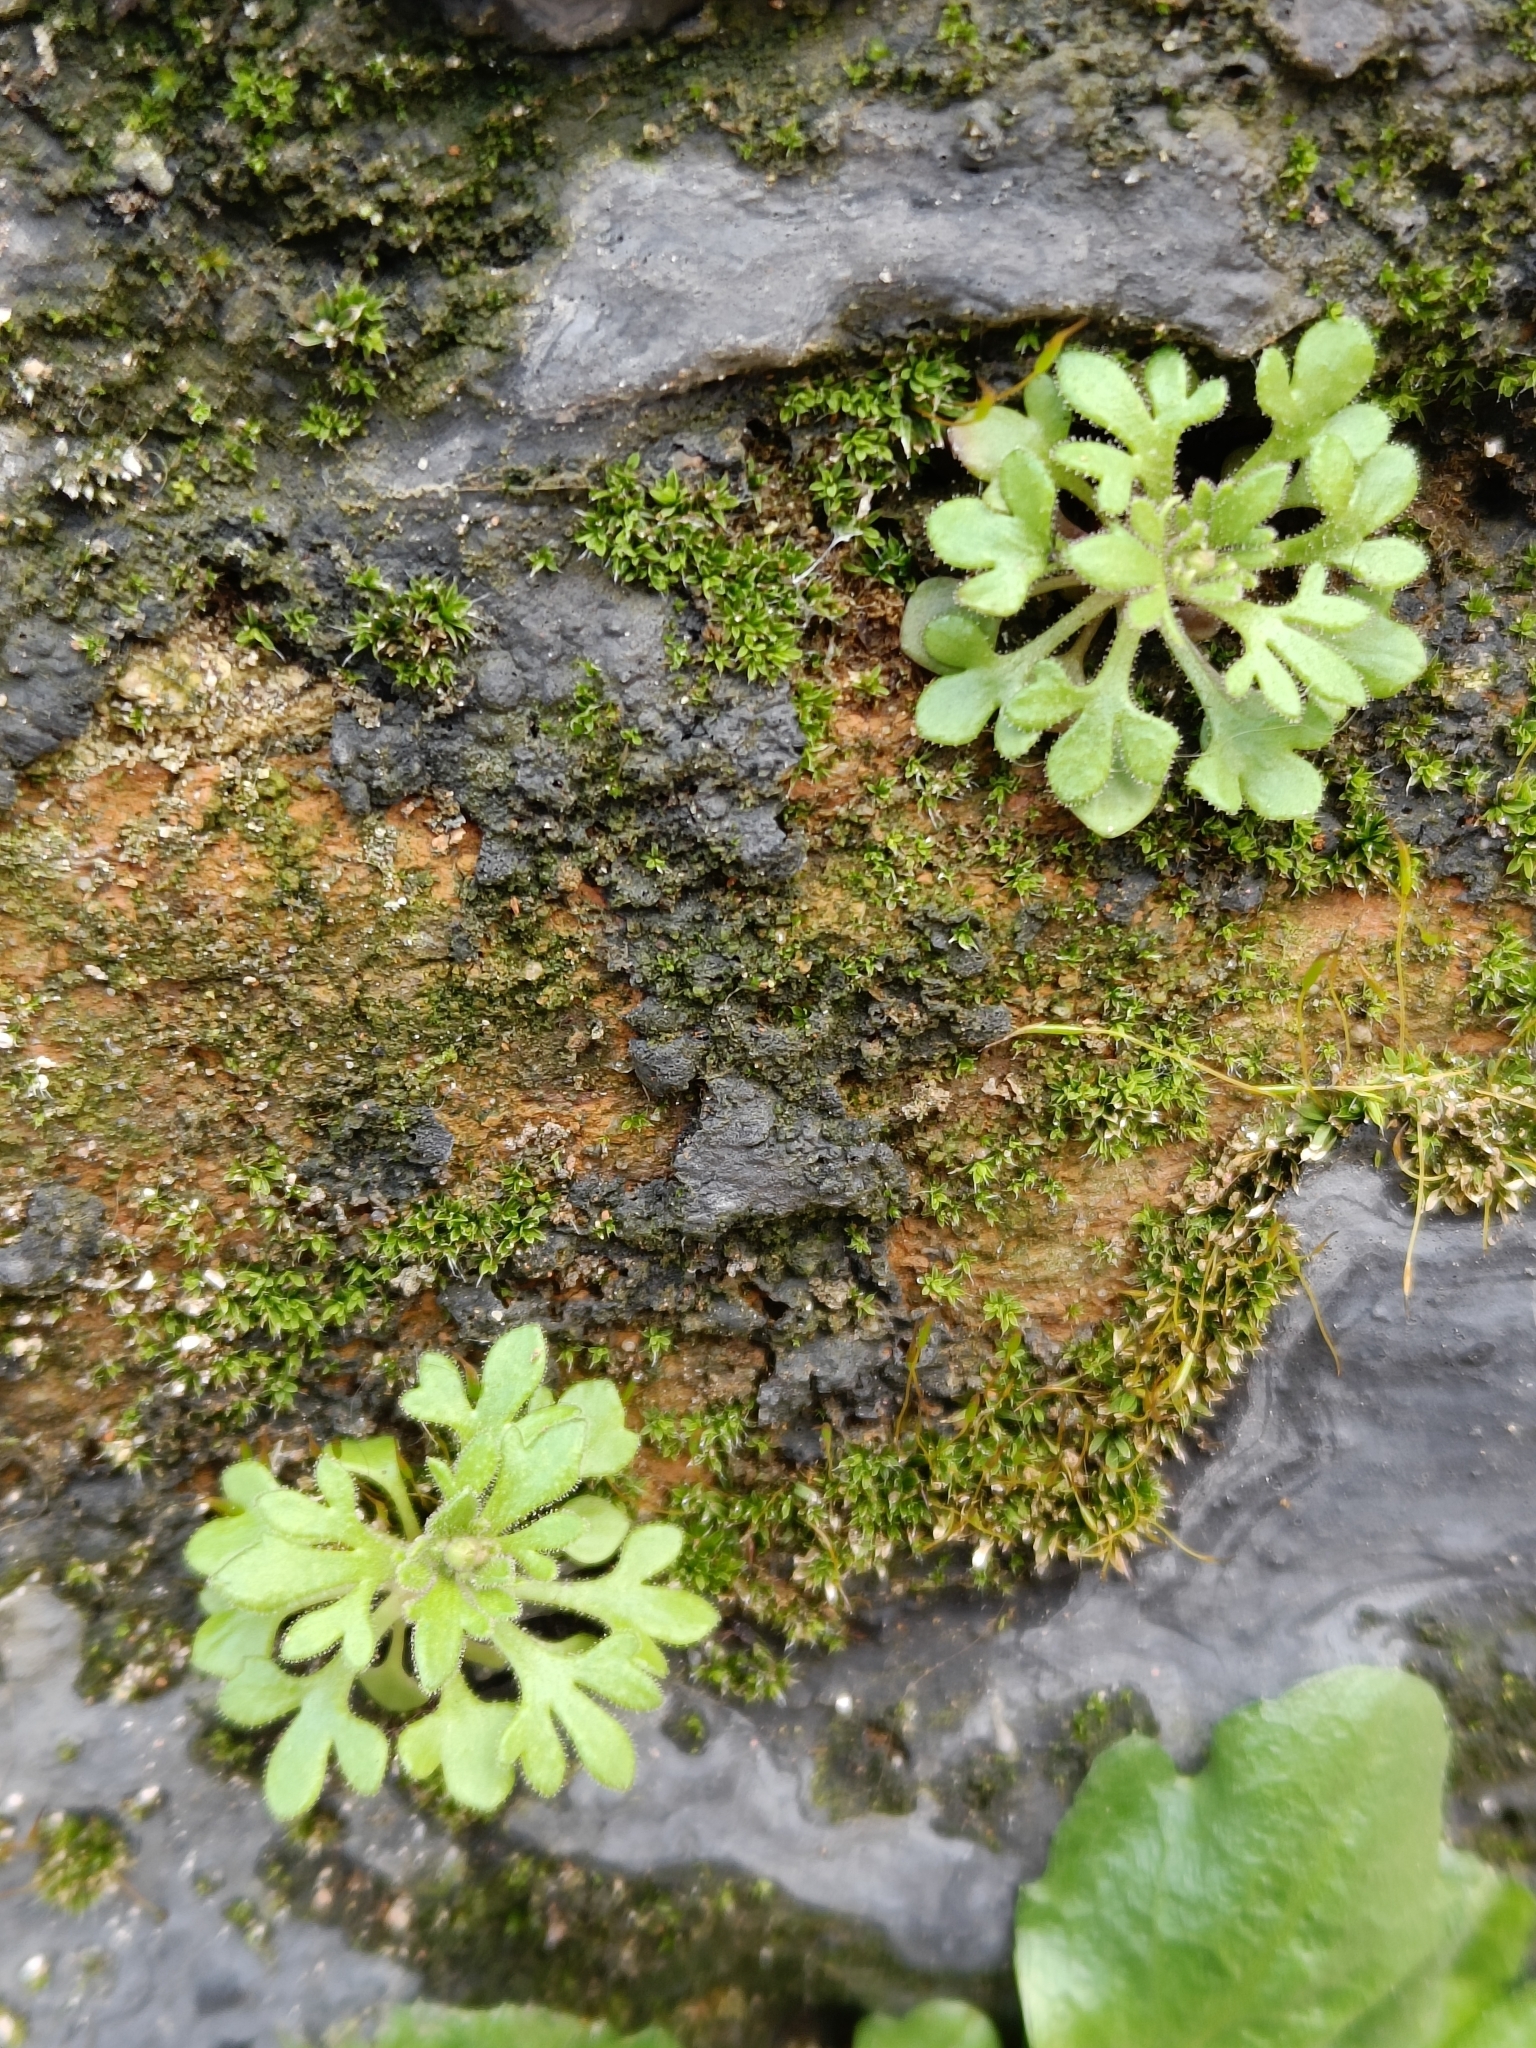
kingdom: Plantae
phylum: Tracheophyta
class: Magnoliopsida
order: Saxifragales
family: Saxifragaceae
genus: Saxifraga
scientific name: Saxifraga tridactylites
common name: Rue-leaved saxifrage
